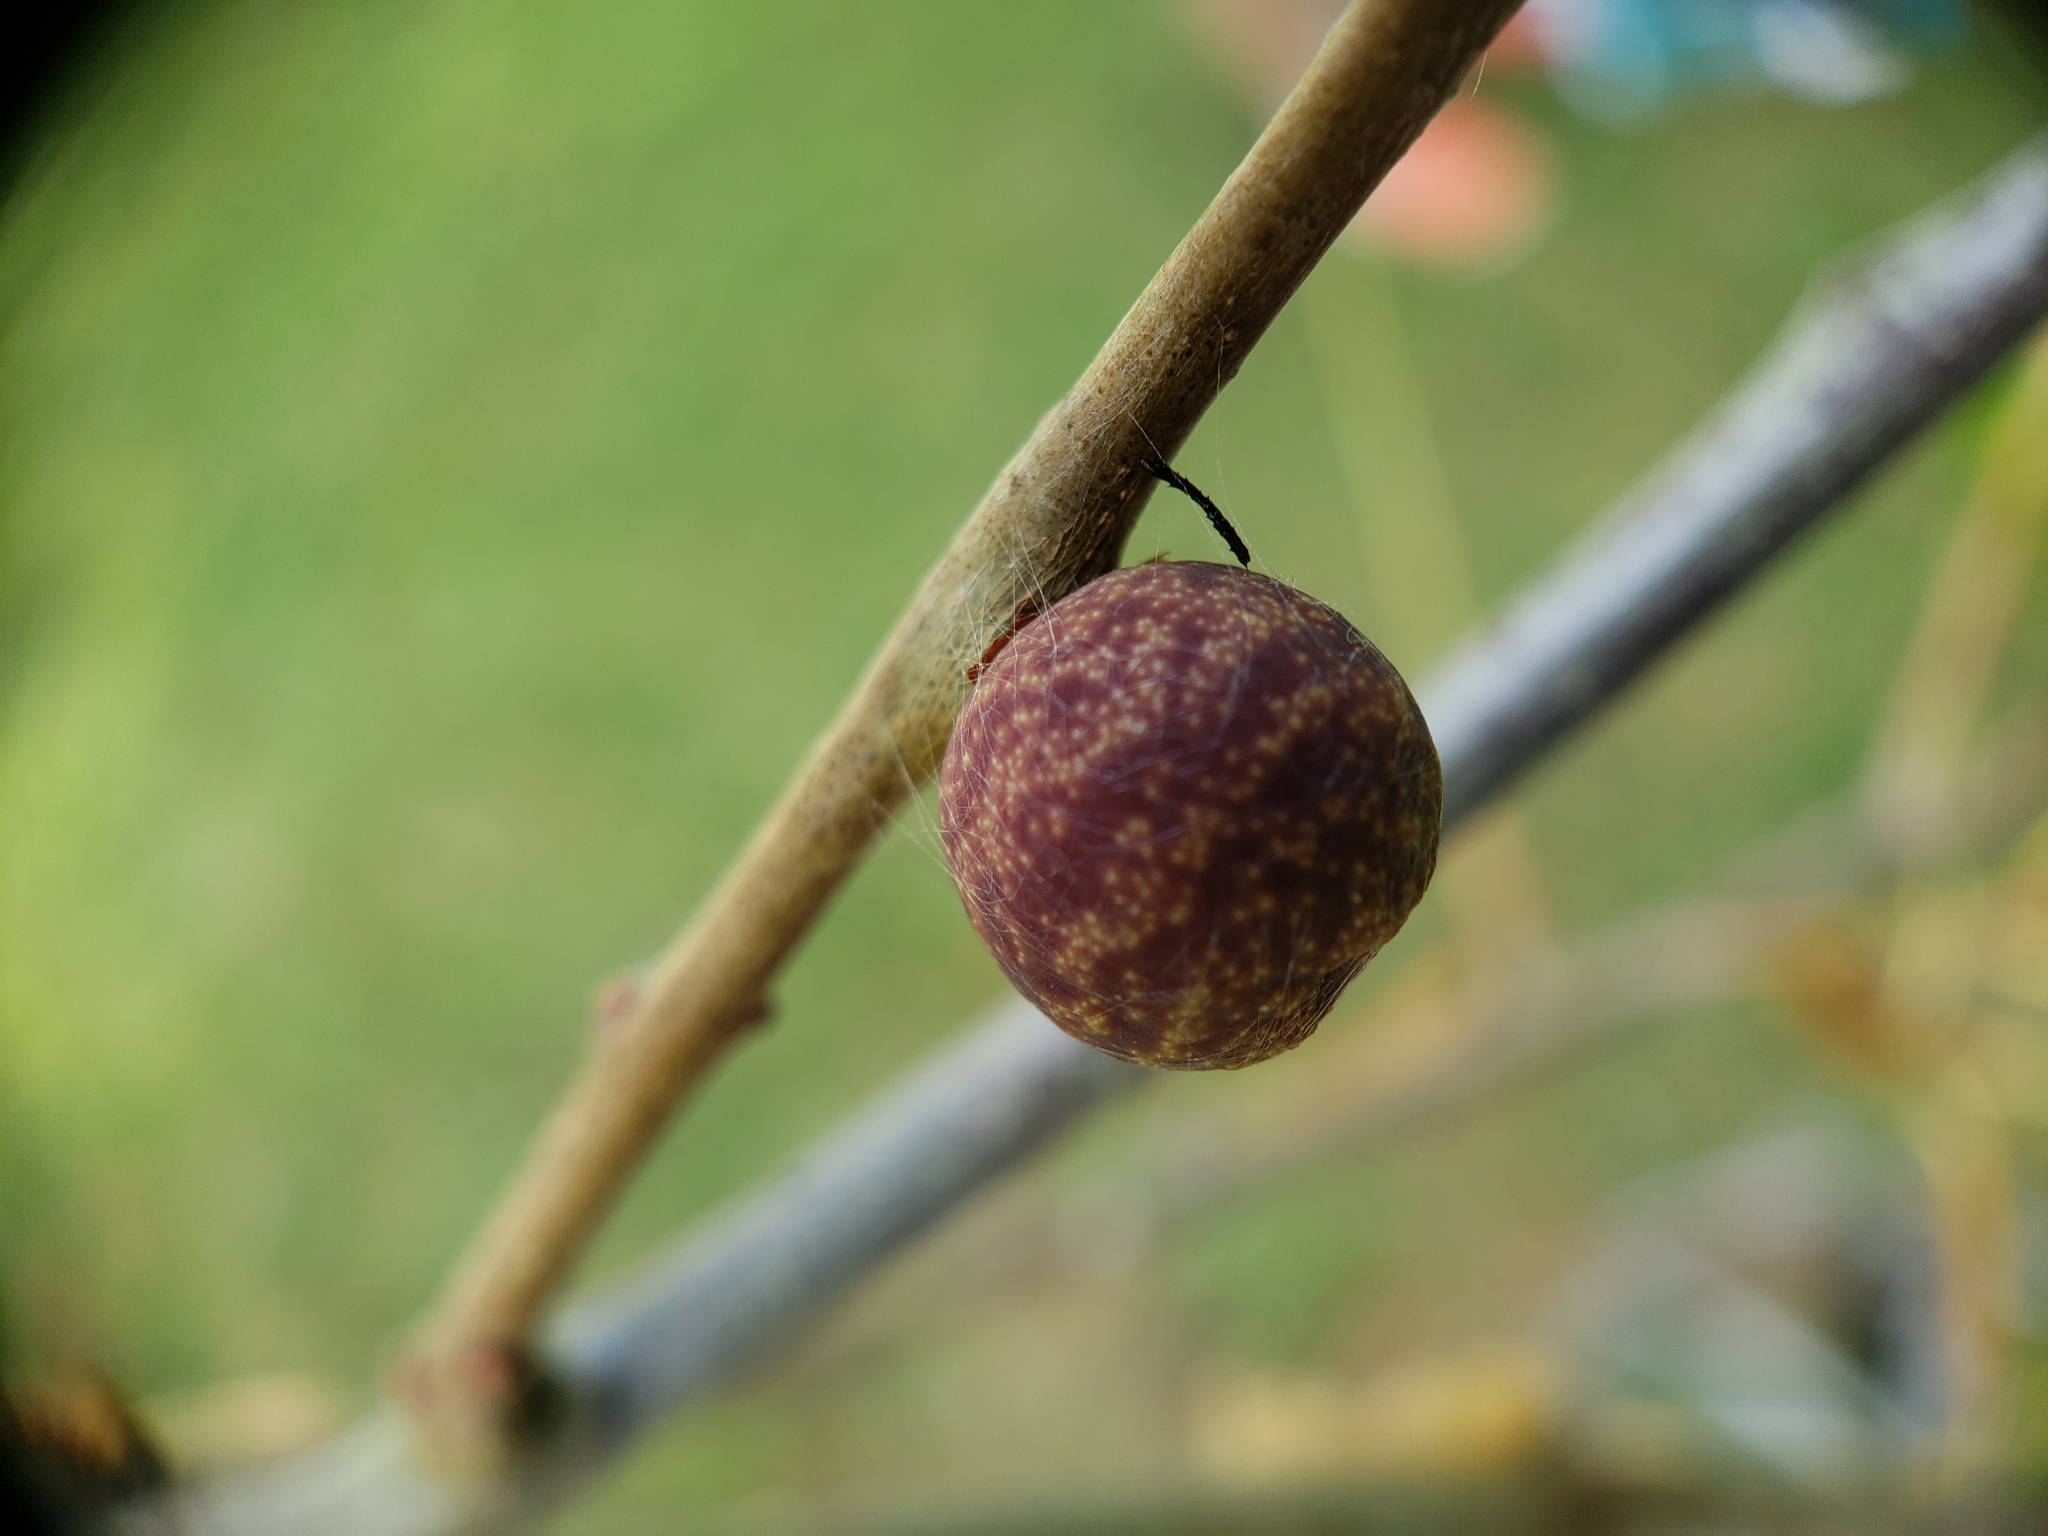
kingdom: Animalia
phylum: Arthropoda
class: Insecta
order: Hymenoptera
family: Cynipidae
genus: Kokkocynips
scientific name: Kokkocynips imbricariae
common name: Banded bullet gall wasp
